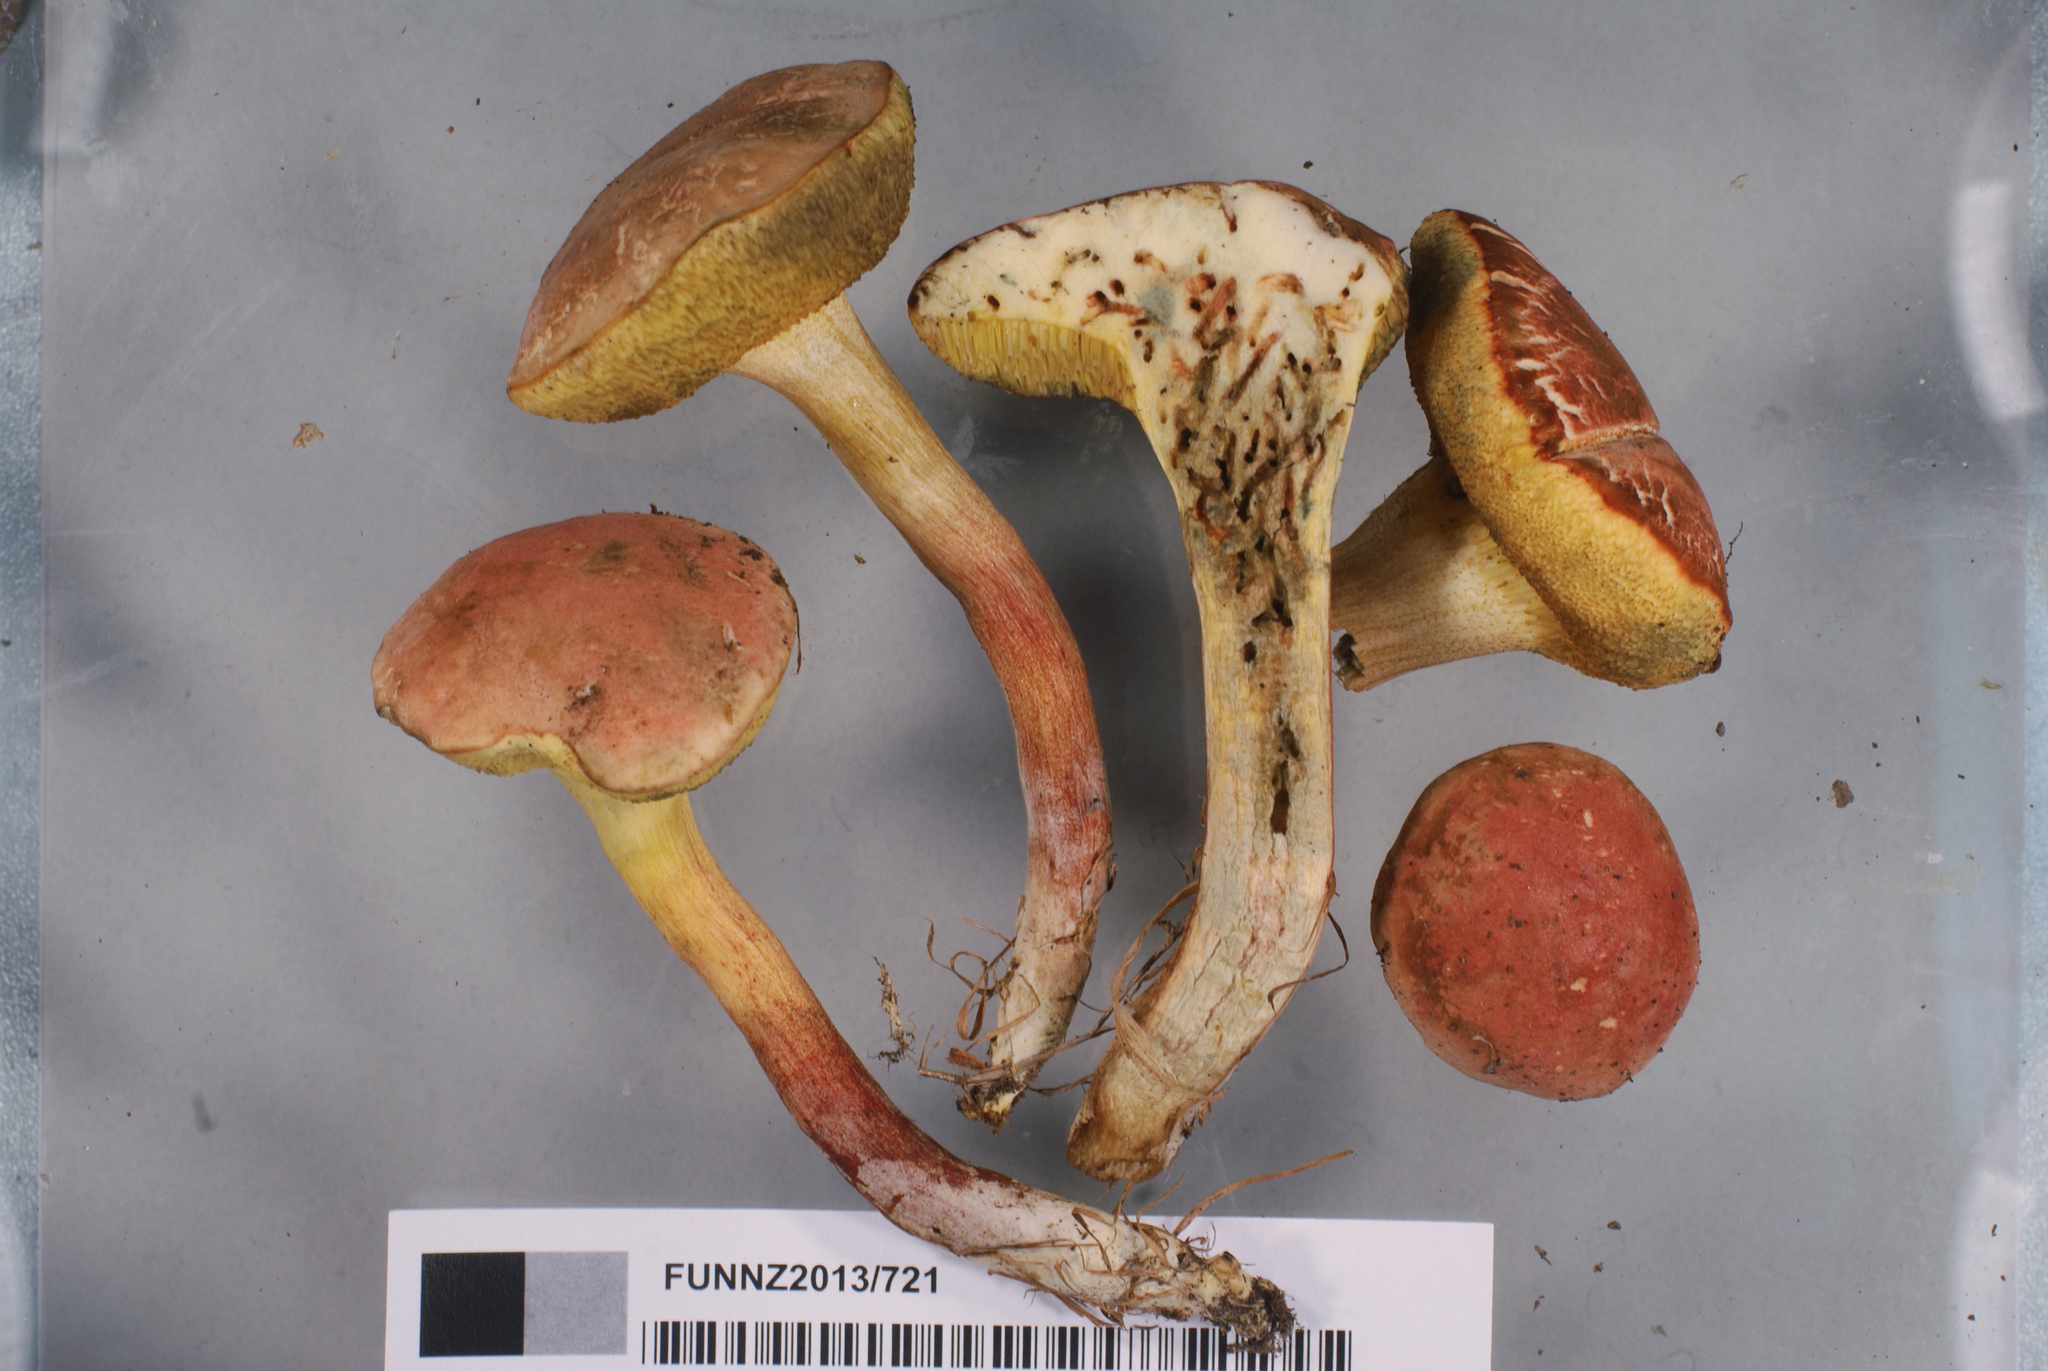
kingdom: Fungi
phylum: Basidiomycota
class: Agaricomycetes
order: Boletales
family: Boletaceae
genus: Xerocomellus
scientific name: Xerocomellus cisalpinus
